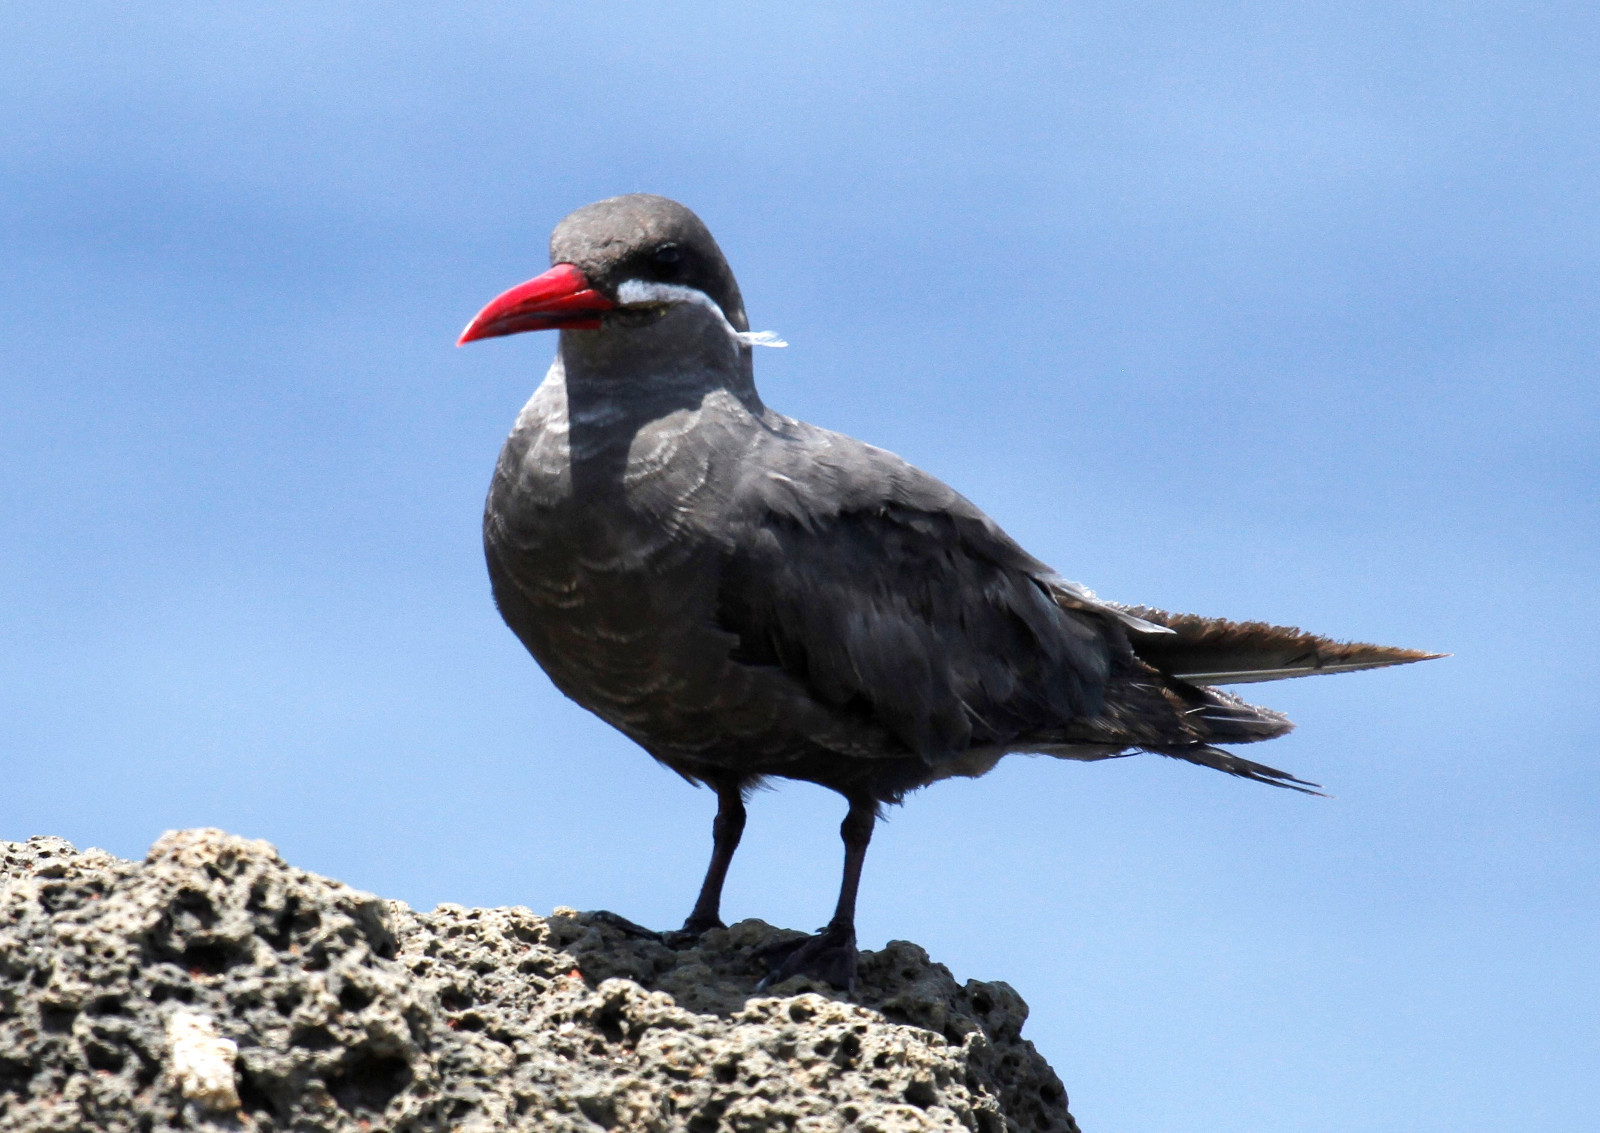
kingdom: Animalia
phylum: Chordata
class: Aves
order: Charadriiformes
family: Laridae
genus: Larosterna
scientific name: Larosterna inca
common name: Inca tern
